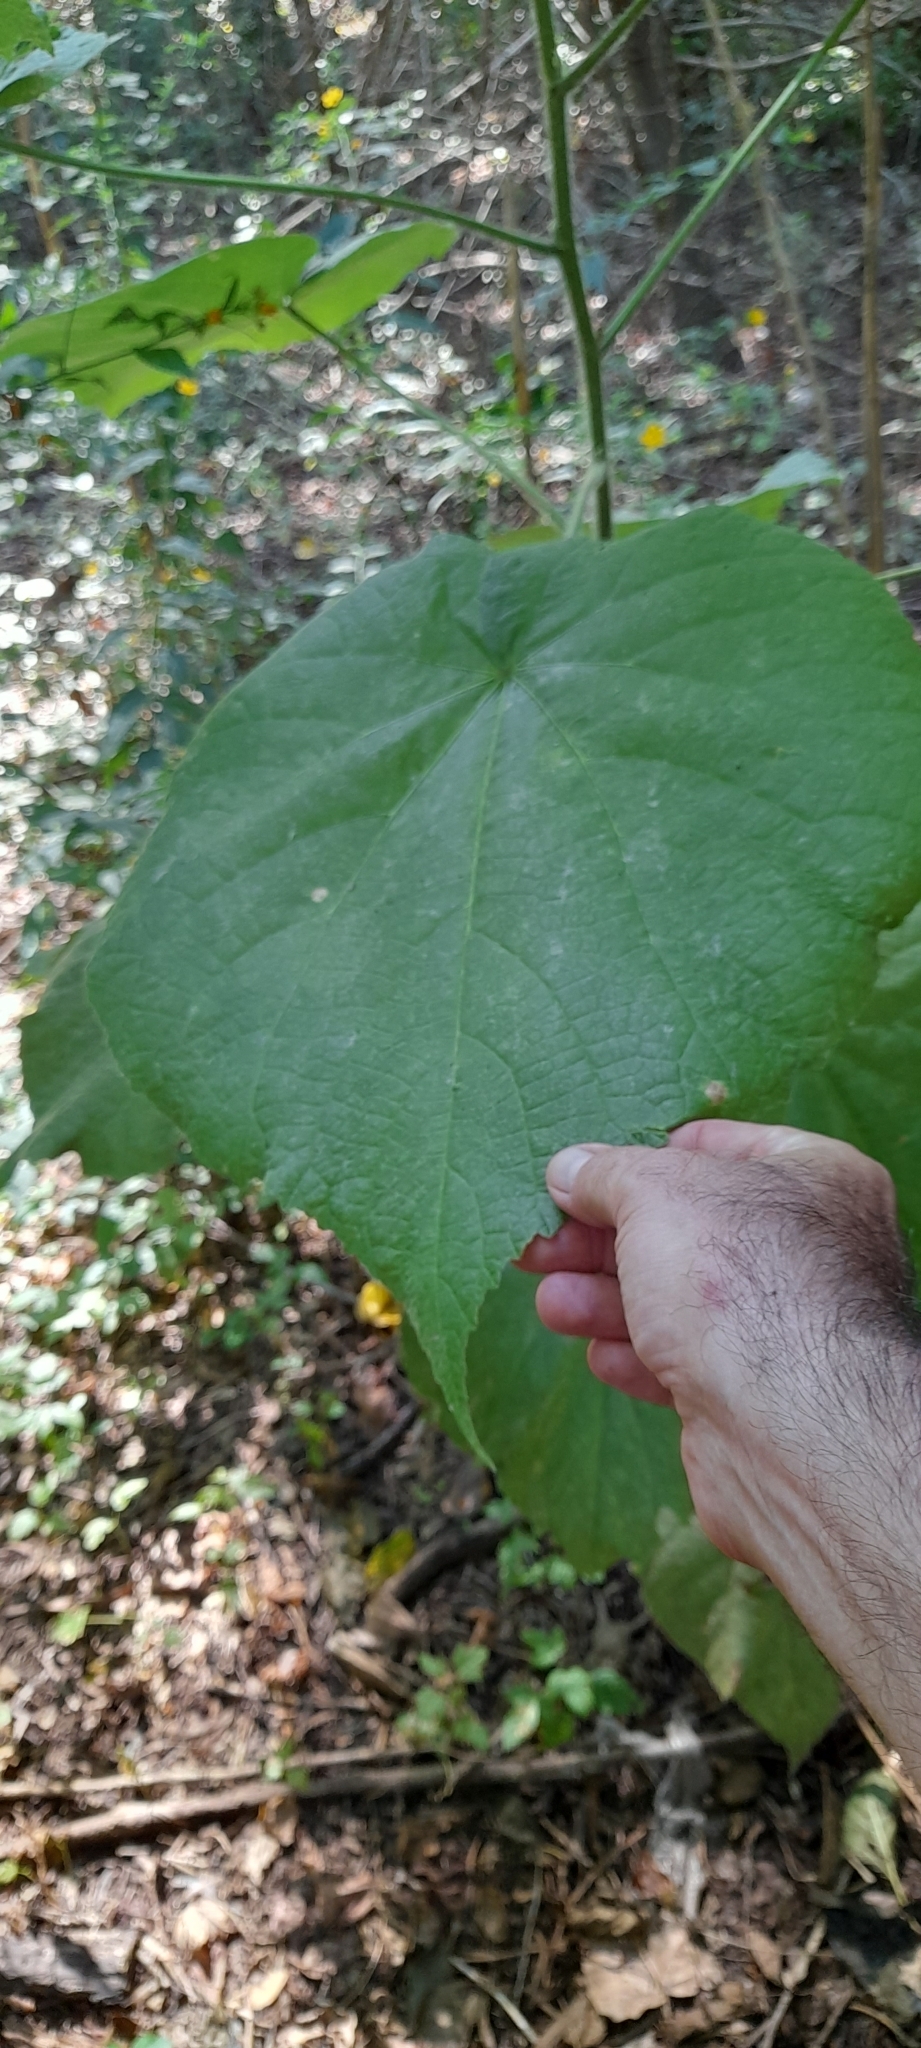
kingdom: Plantae
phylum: Tracheophyta
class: Magnoliopsida
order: Malvales
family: Malvaceae
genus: Abutilon
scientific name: Abutilon grandifolium
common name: Hairy abutilon
